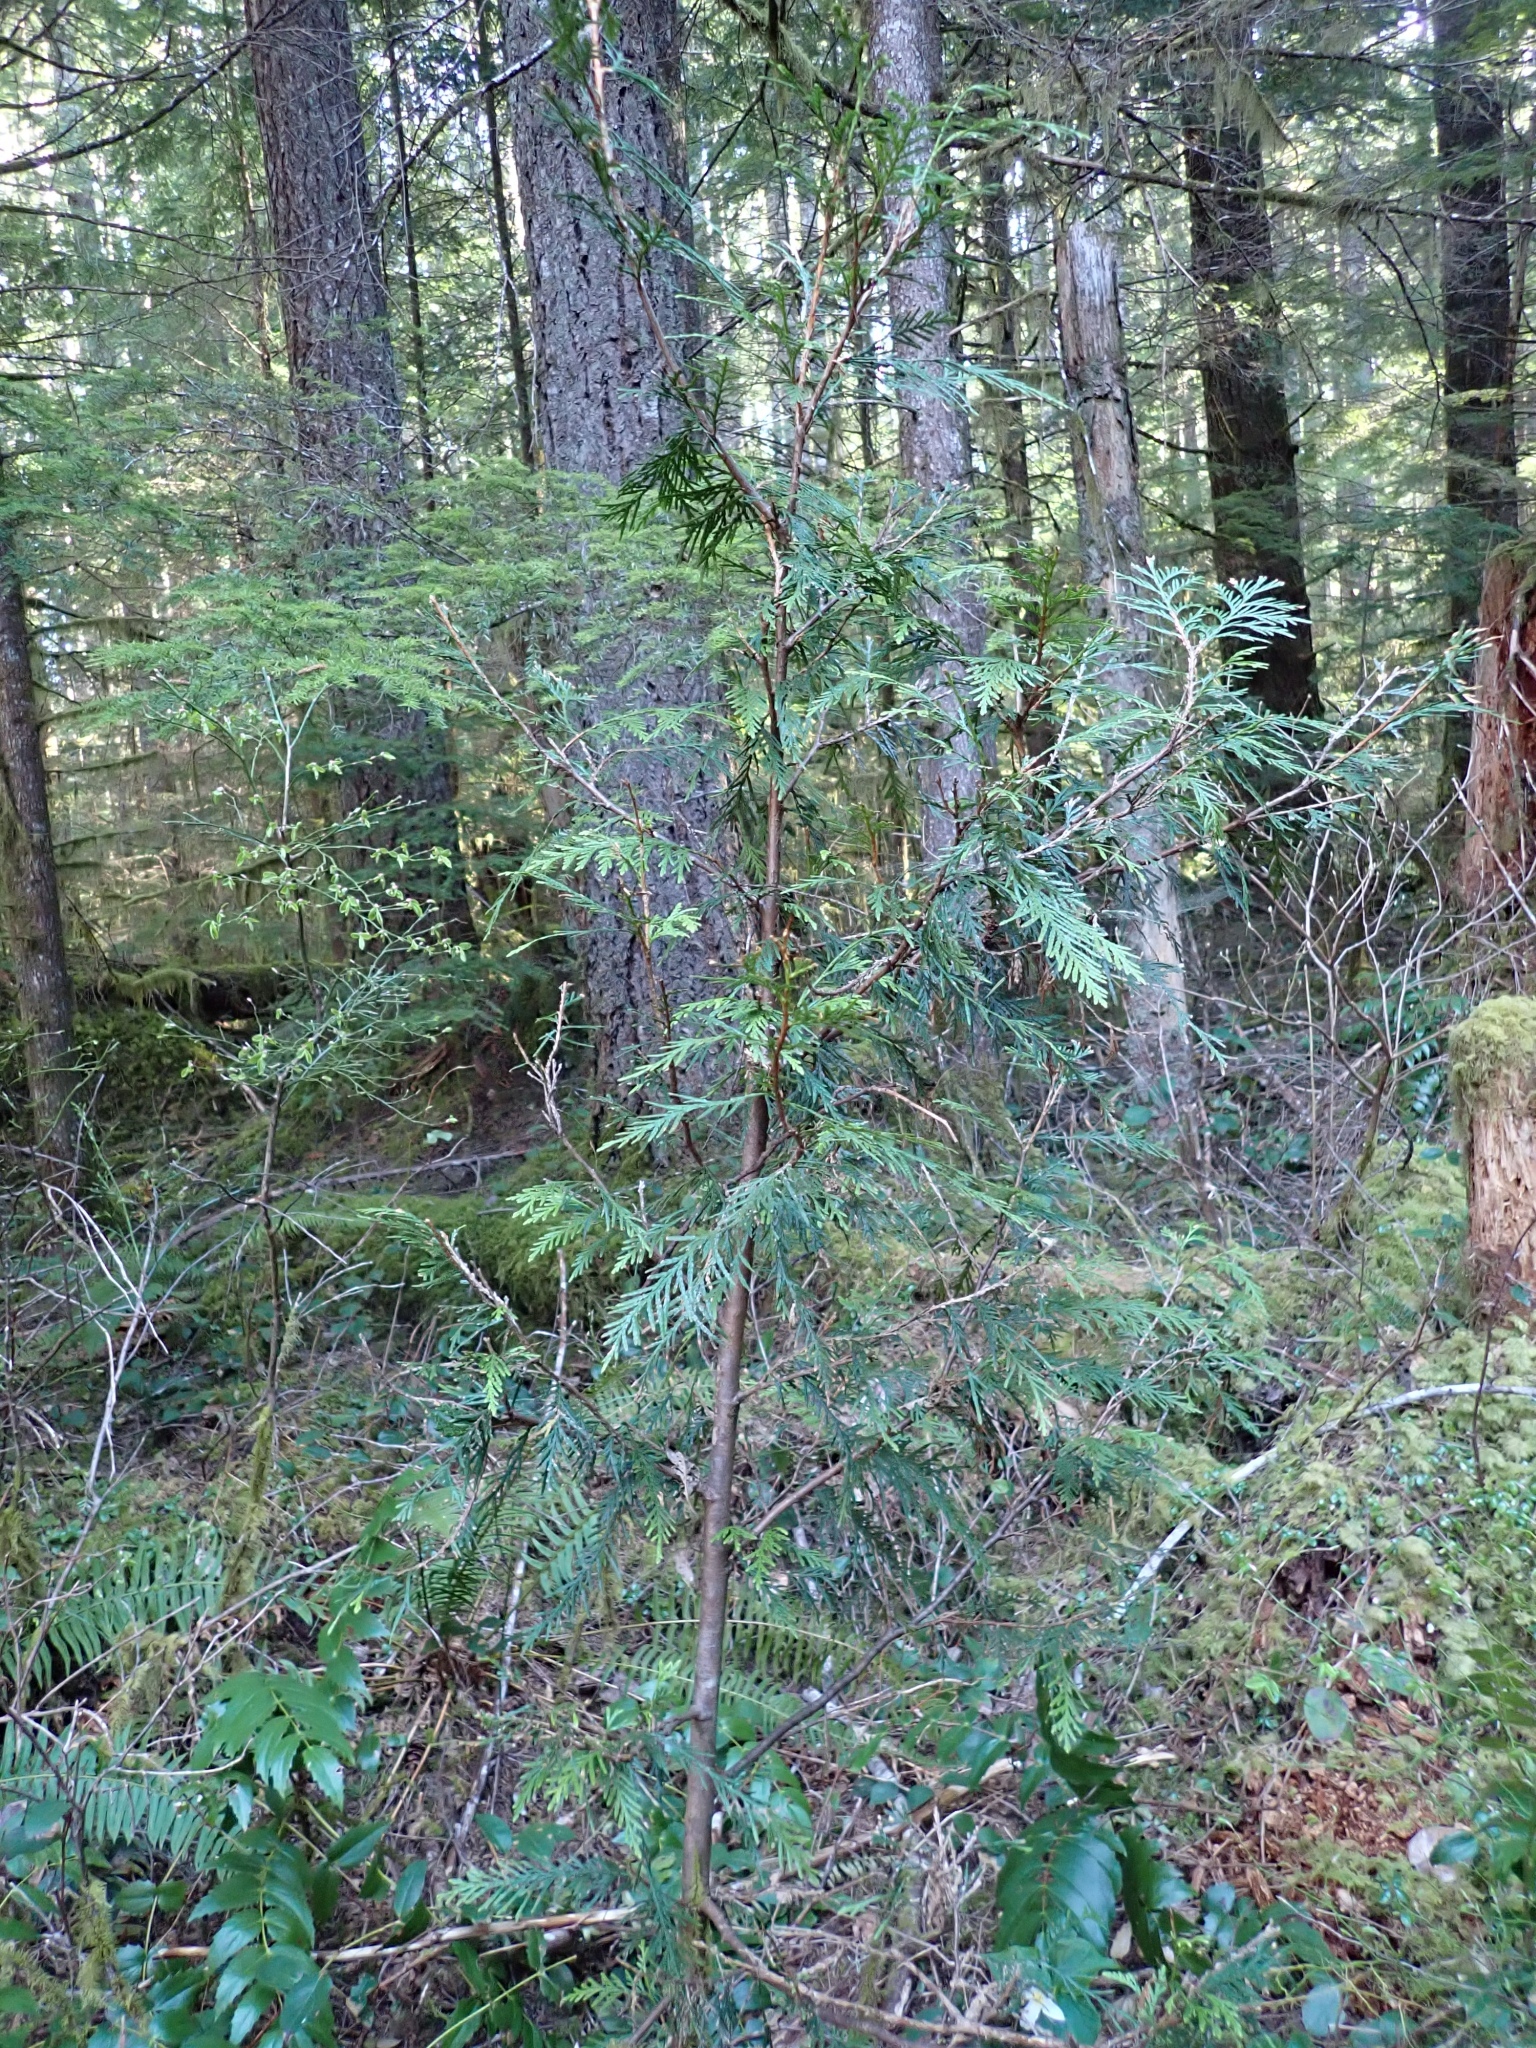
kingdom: Plantae
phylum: Tracheophyta
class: Pinopsida
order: Pinales
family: Cupressaceae
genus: Thuja
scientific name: Thuja plicata
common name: Western red-cedar
